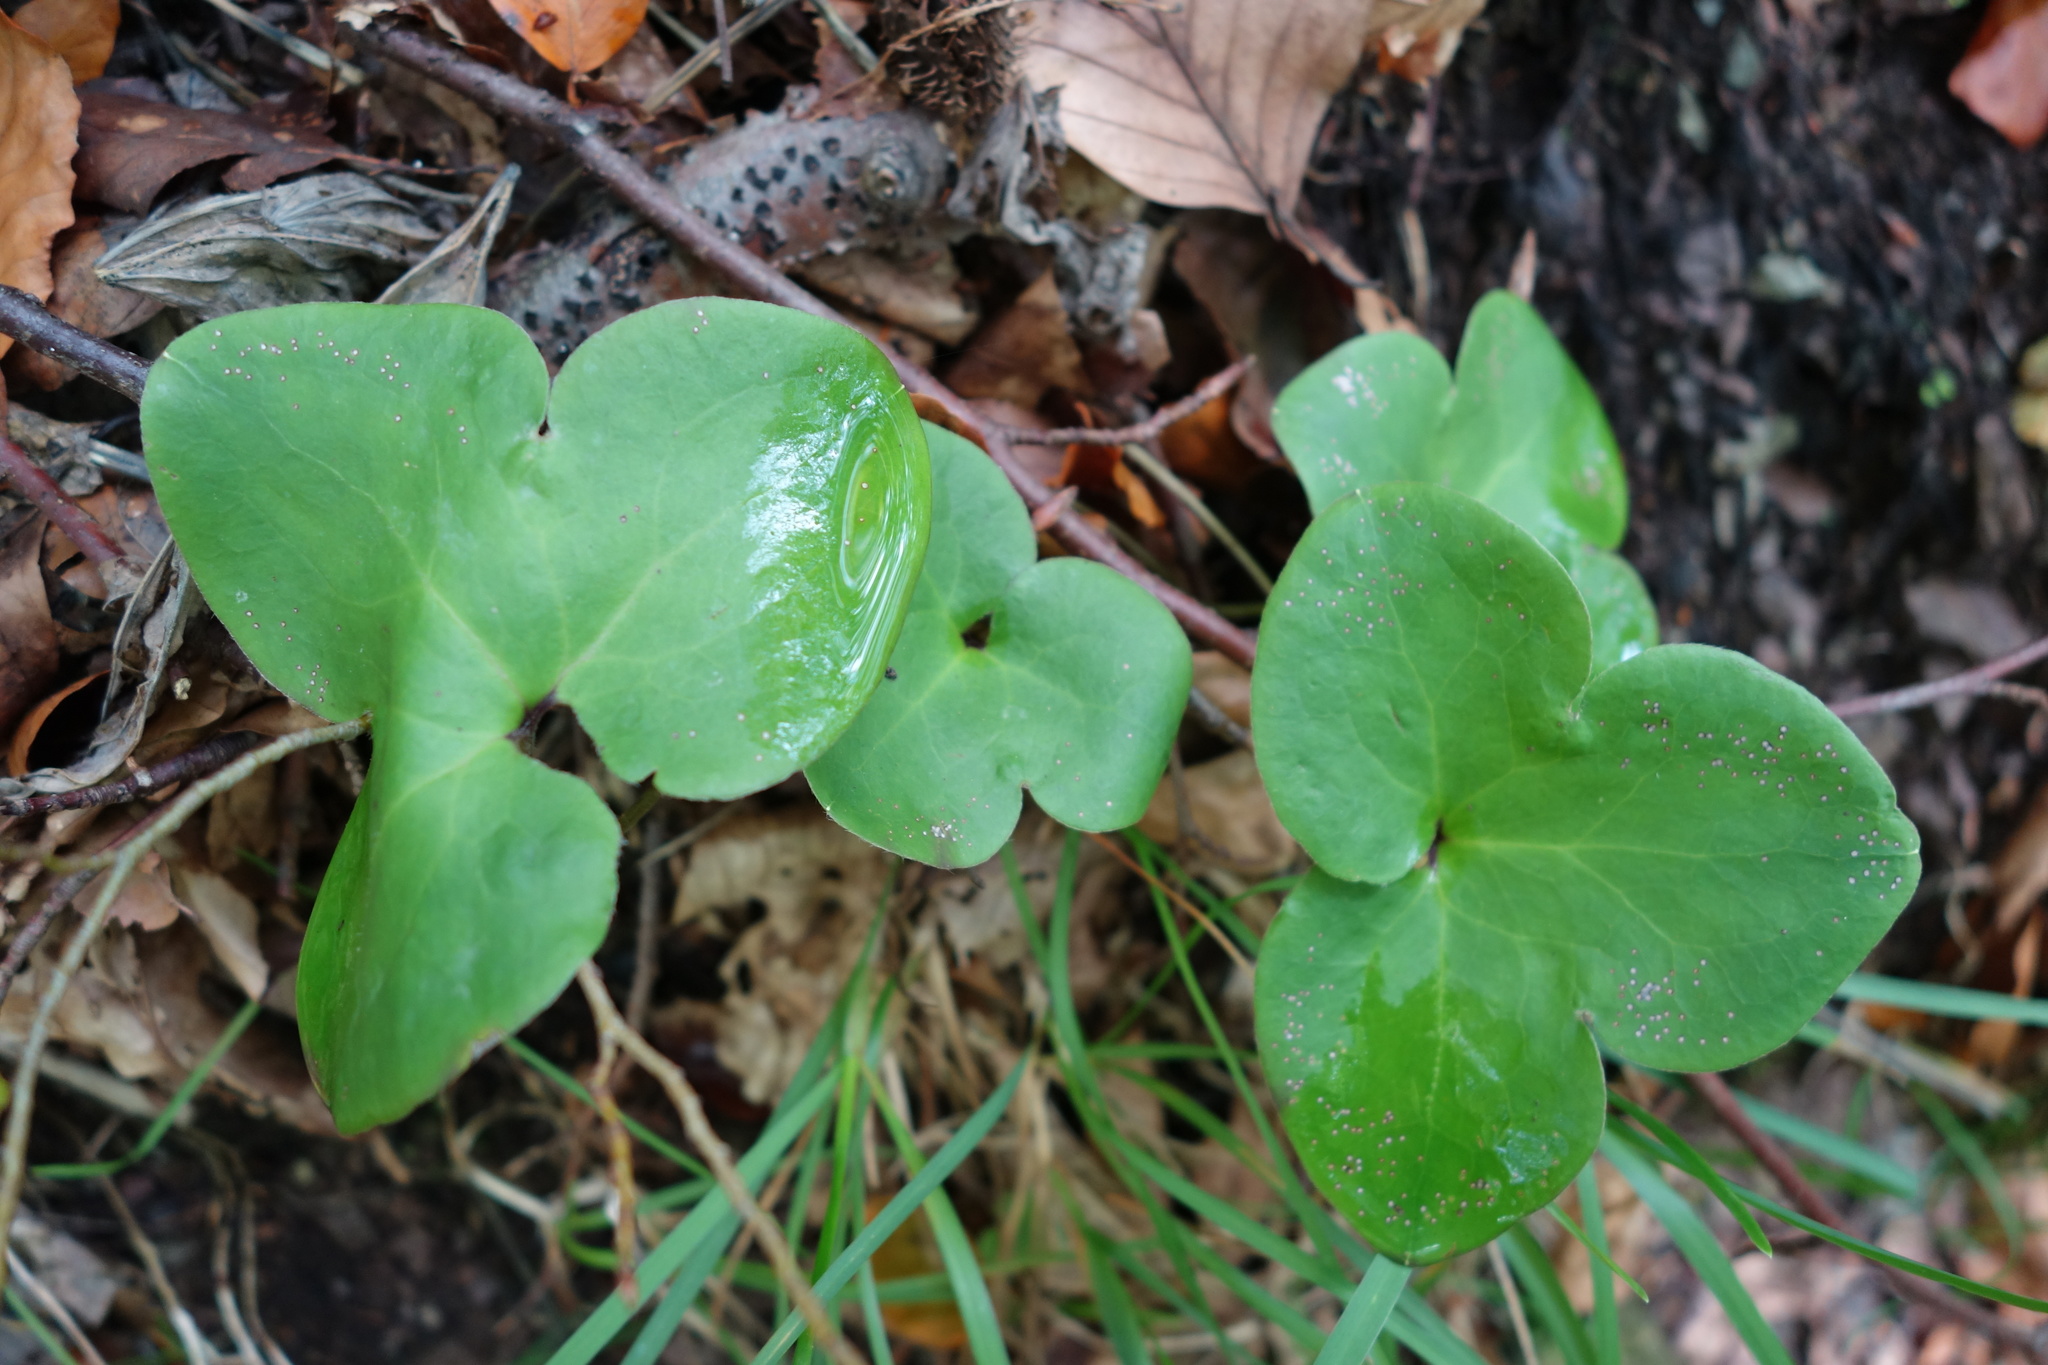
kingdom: Plantae
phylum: Tracheophyta
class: Magnoliopsida
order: Ranunculales
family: Ranunculaceae
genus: Hepatica
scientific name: Hepatica nobilis
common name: Liverleaf
